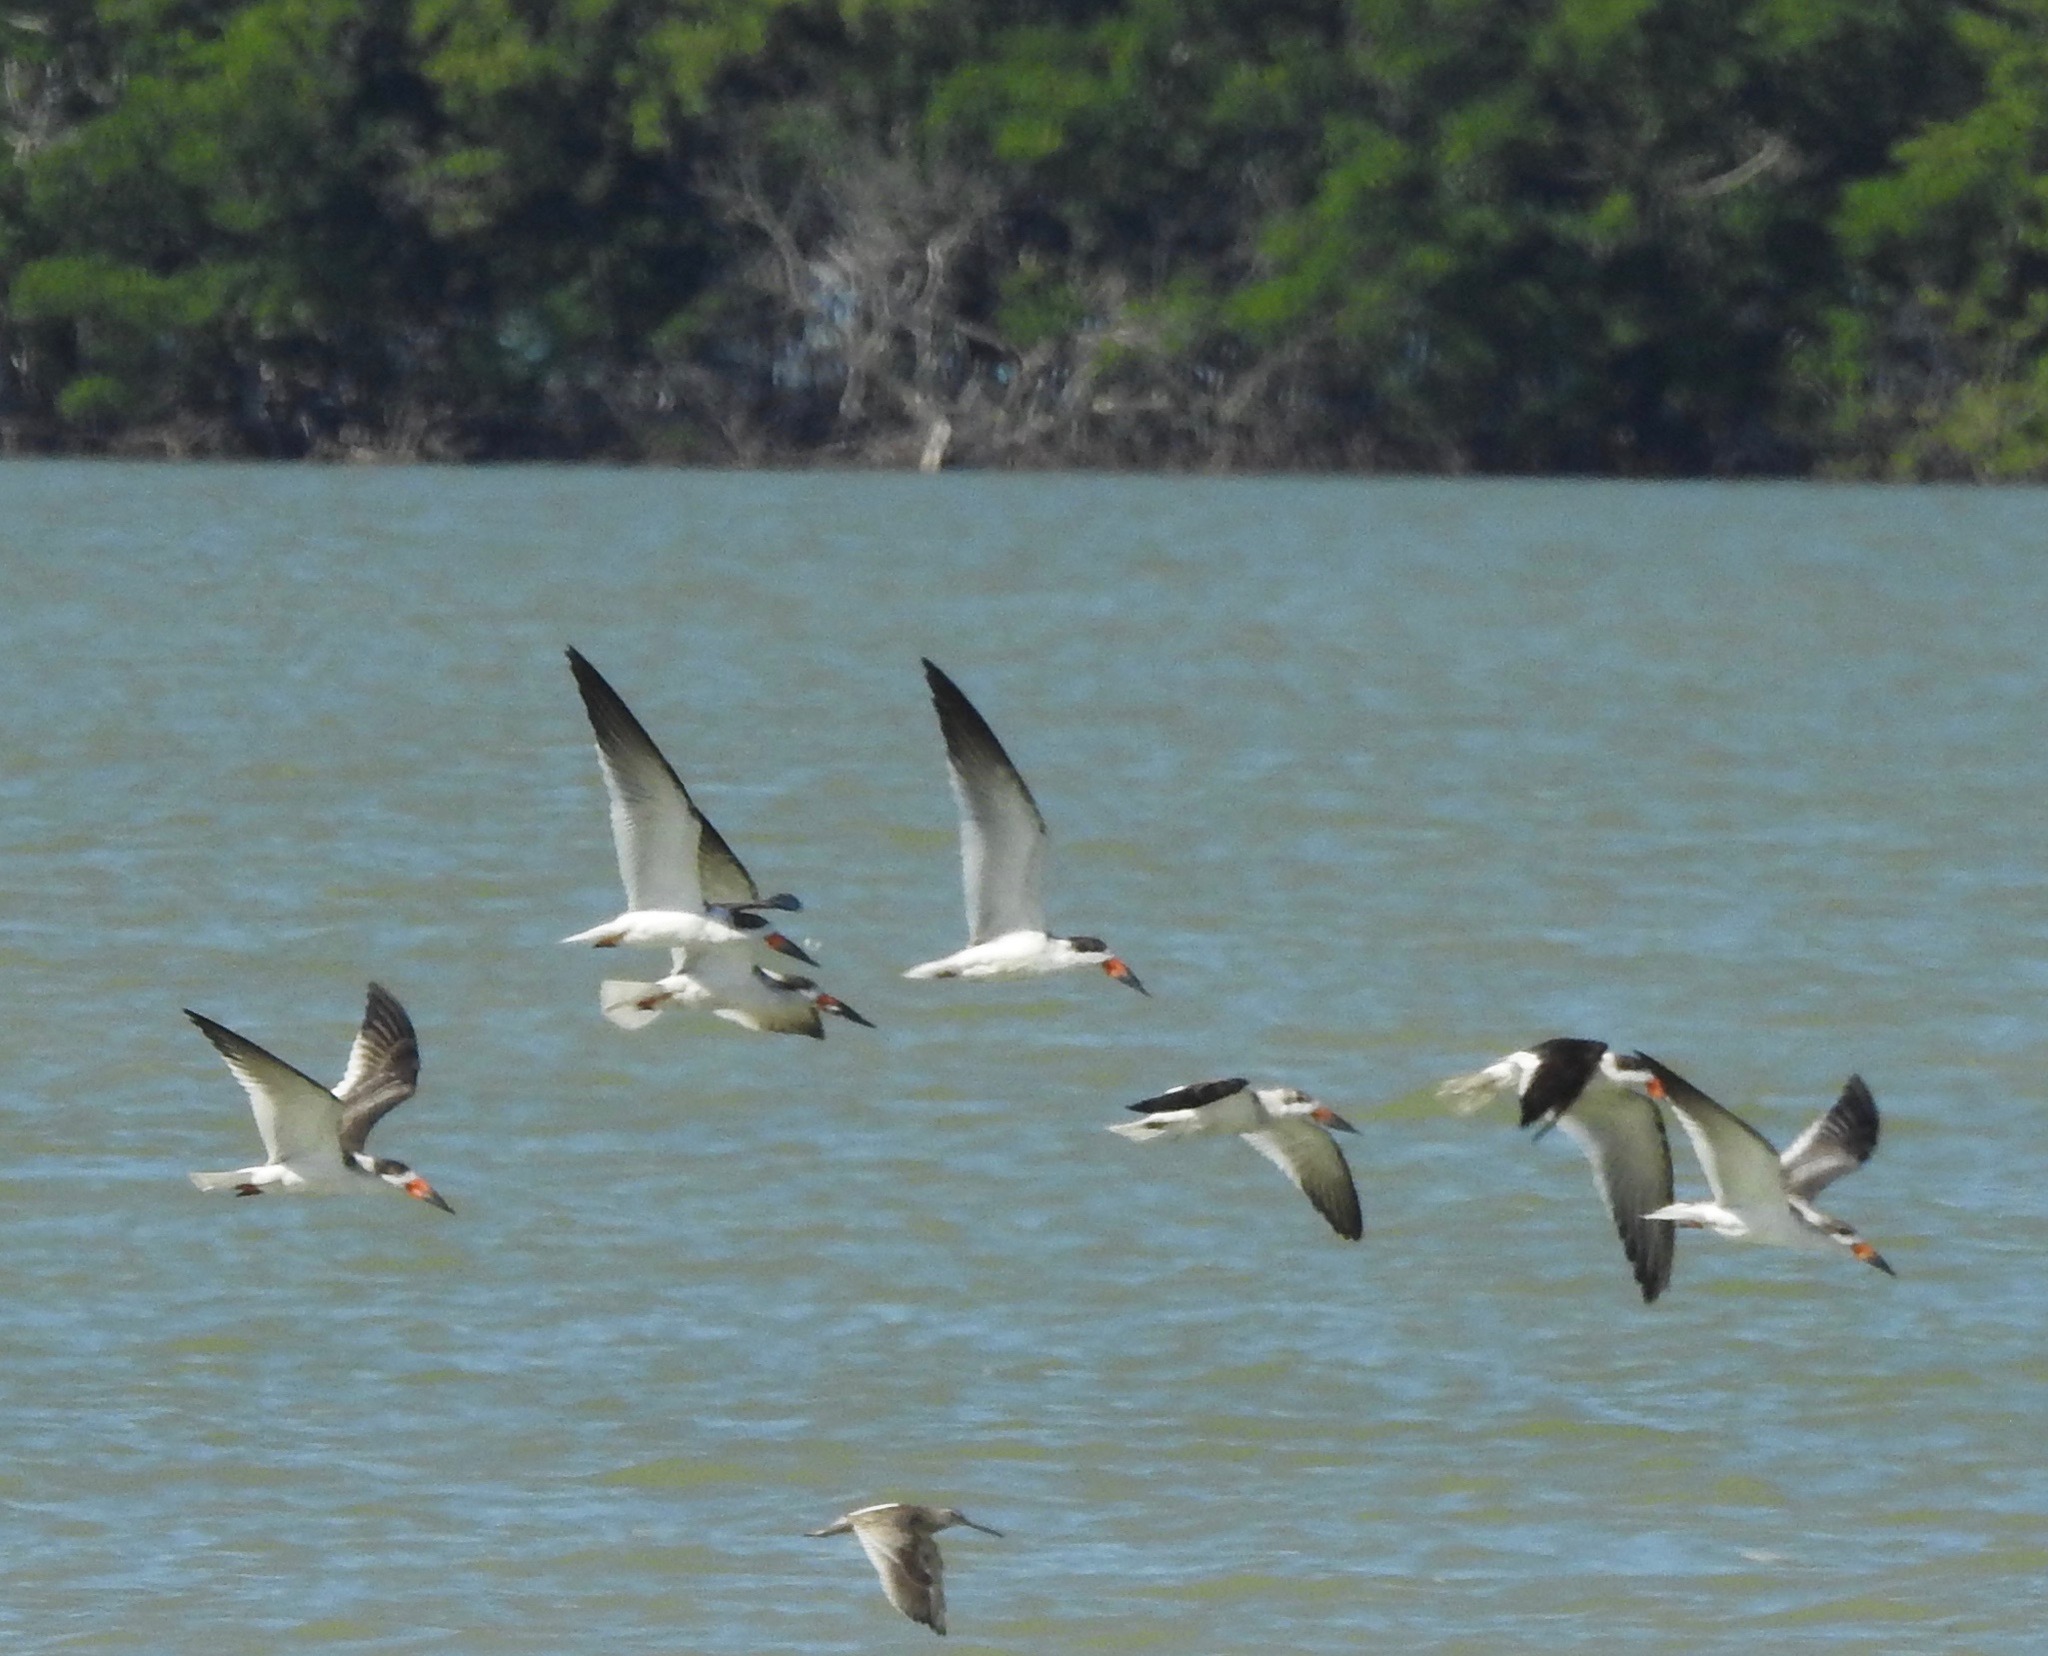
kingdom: Animalia
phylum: Chordata
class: Aves
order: Charadriiformes
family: Laridae
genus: Rynchops
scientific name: Rynchops niger
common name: Black skimmer
